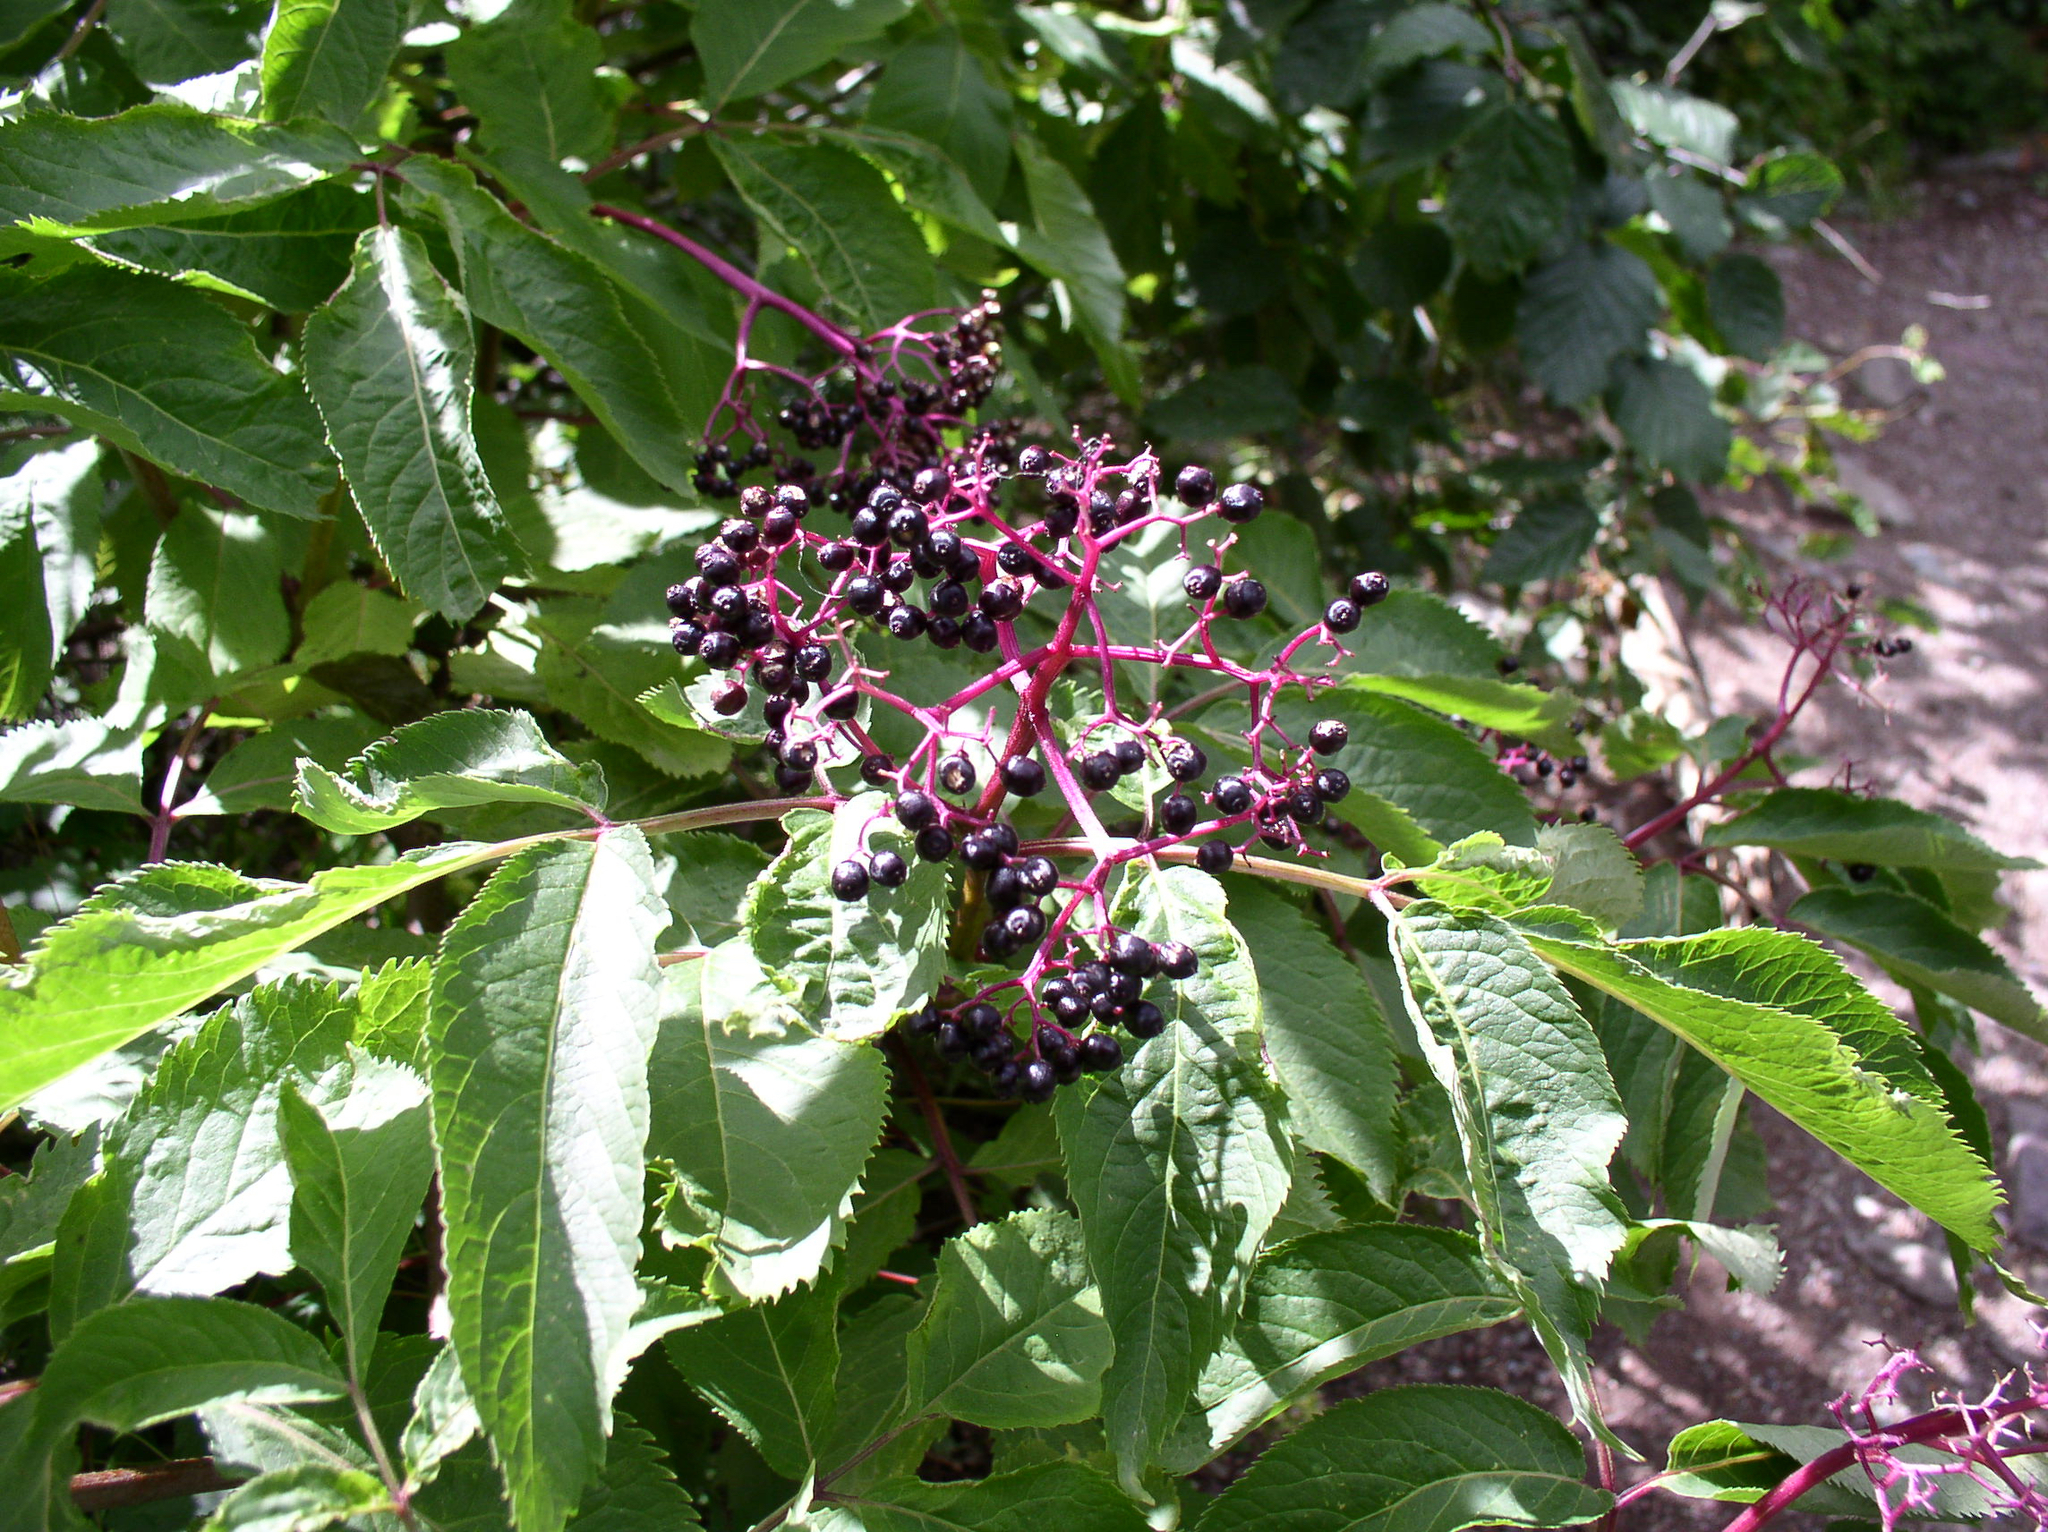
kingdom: Plantae
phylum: Tracheophyta
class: Magnoliopsida
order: Dipsacales
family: Viburnaceae
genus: Sambucus
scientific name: Sambucus racemosa
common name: Red-berried elder
